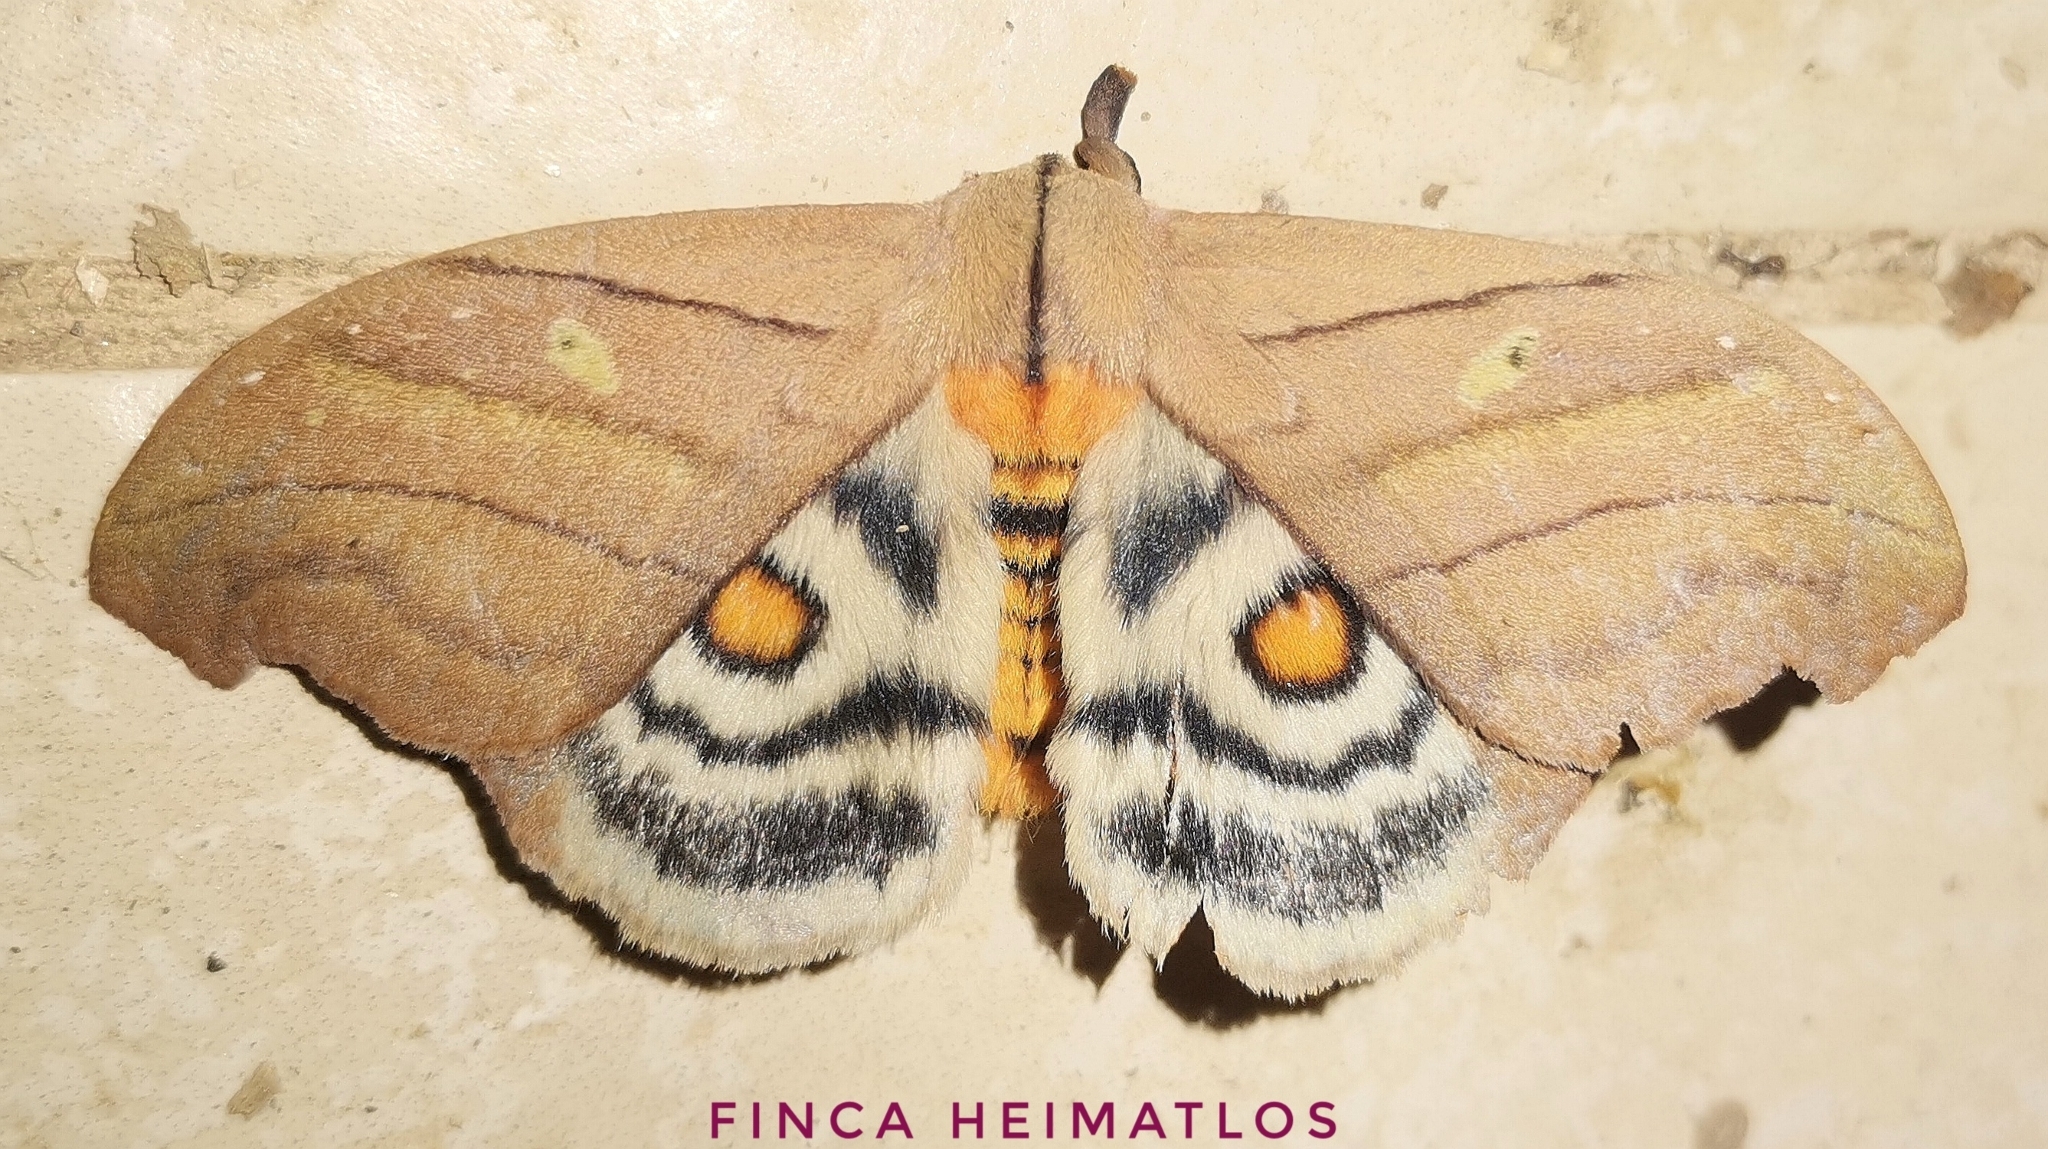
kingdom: Animalia
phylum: Arthropoda
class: Insecta
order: Lepidoptera
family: Saturniidae
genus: Hyperchiria
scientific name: Hyperchiria nausica
